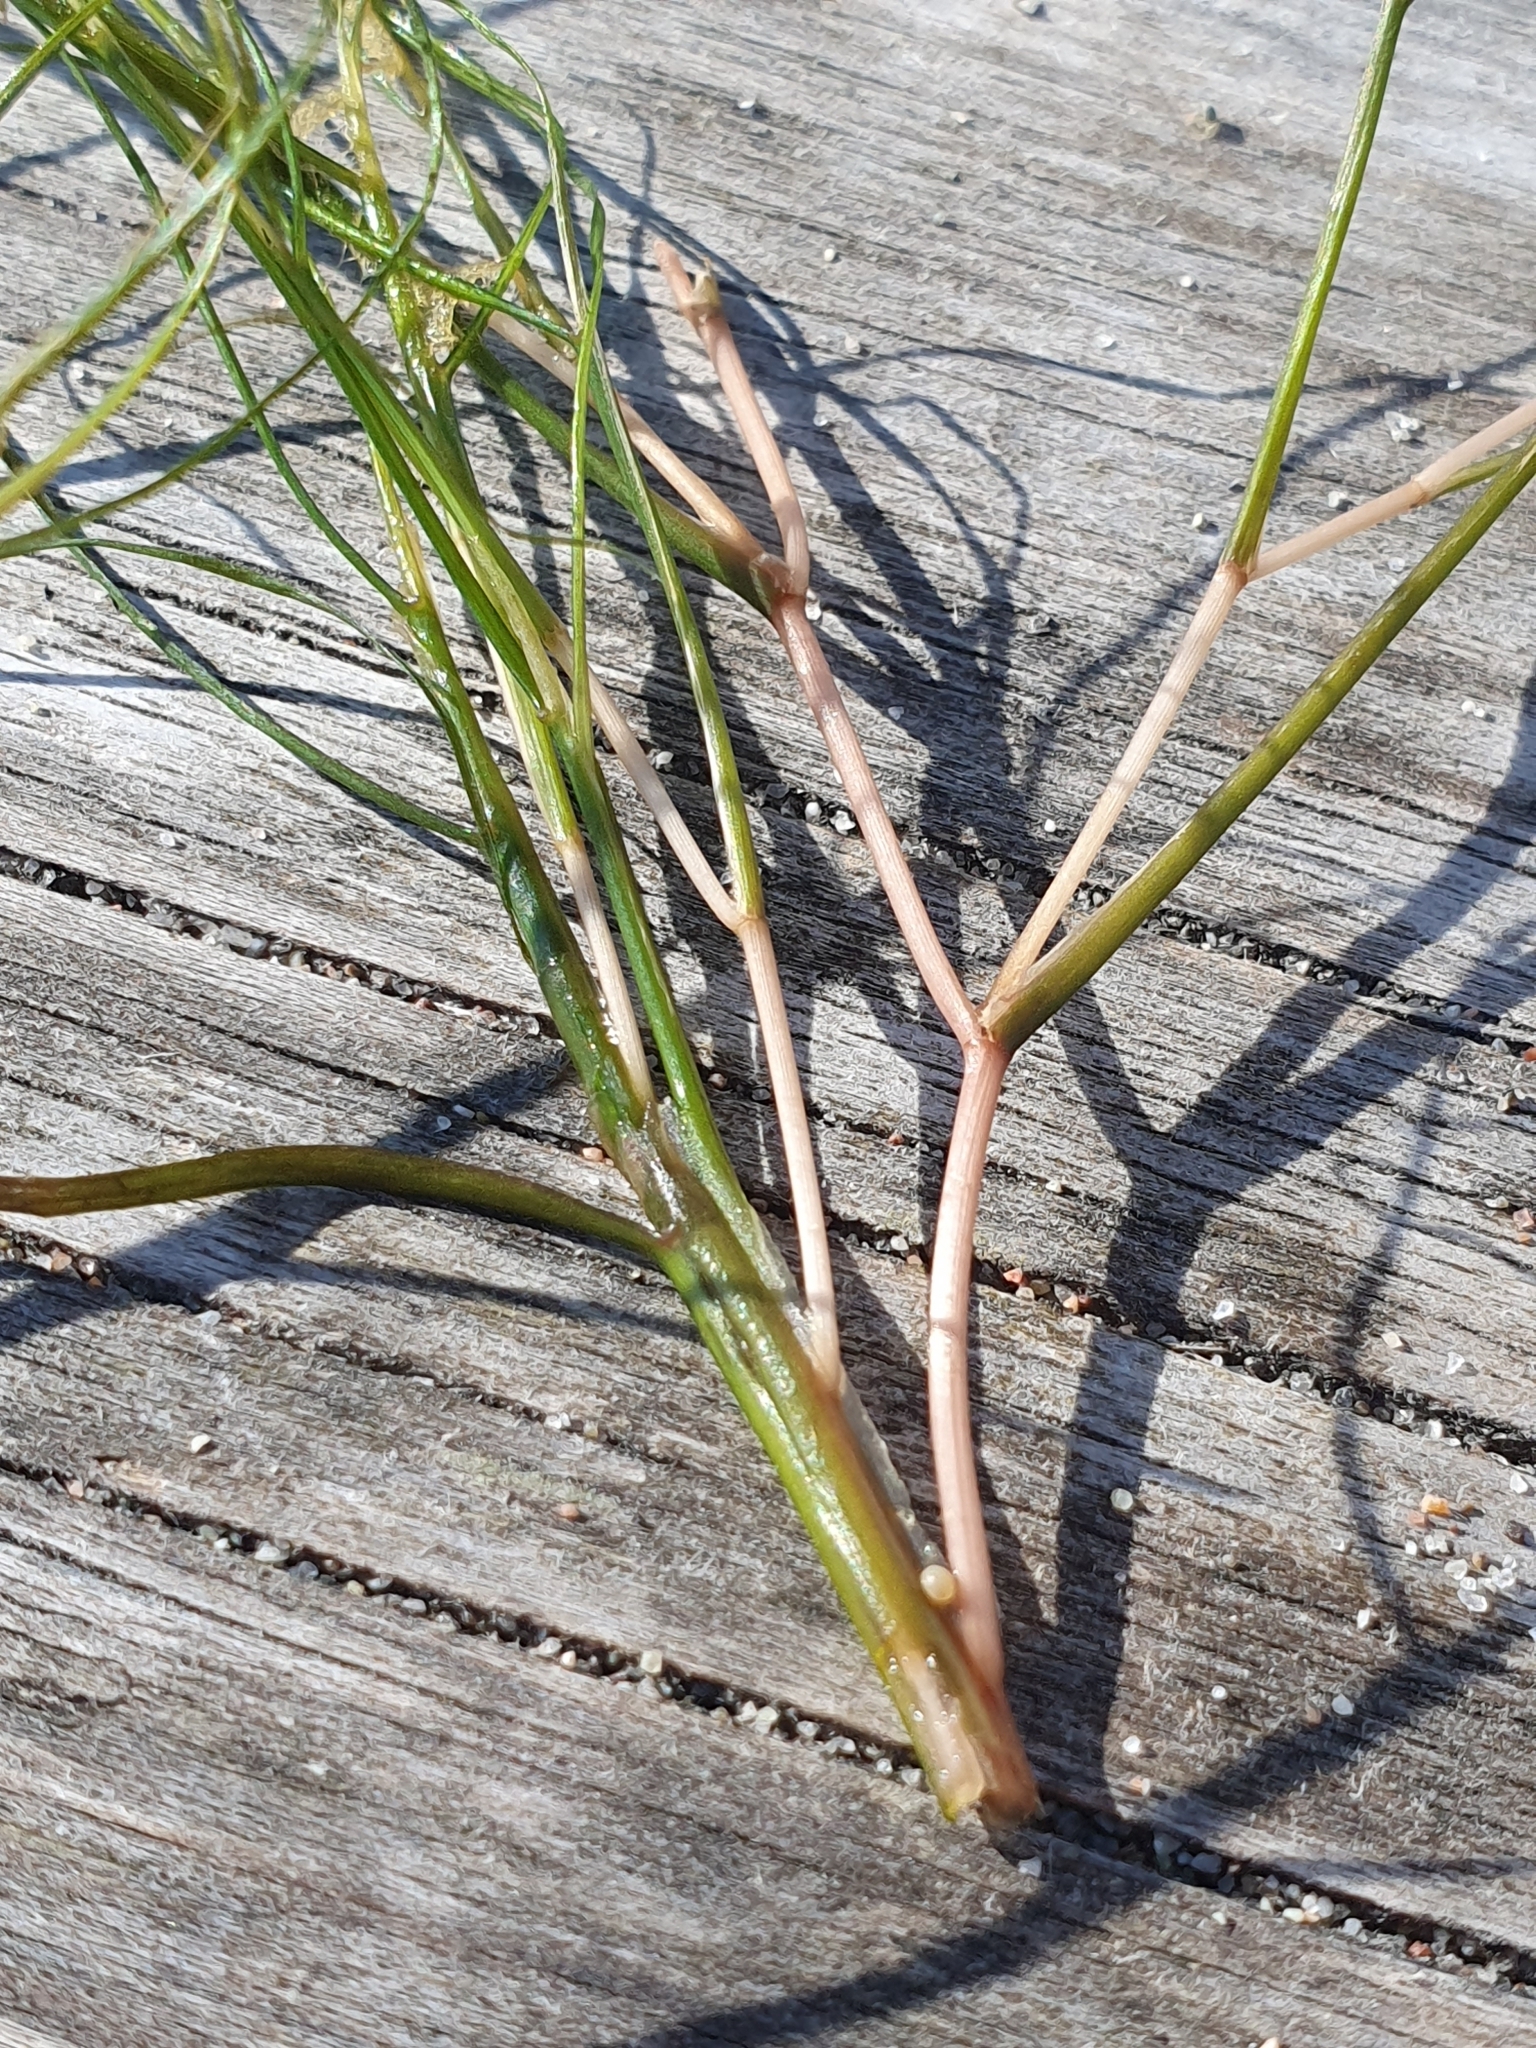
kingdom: Plantae
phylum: Tracheophyta
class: Liliopsida
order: Alismatales
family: Potamogetonaceae
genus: Stuckenia
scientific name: Stuckenia pectinata
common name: Sago pondweed
